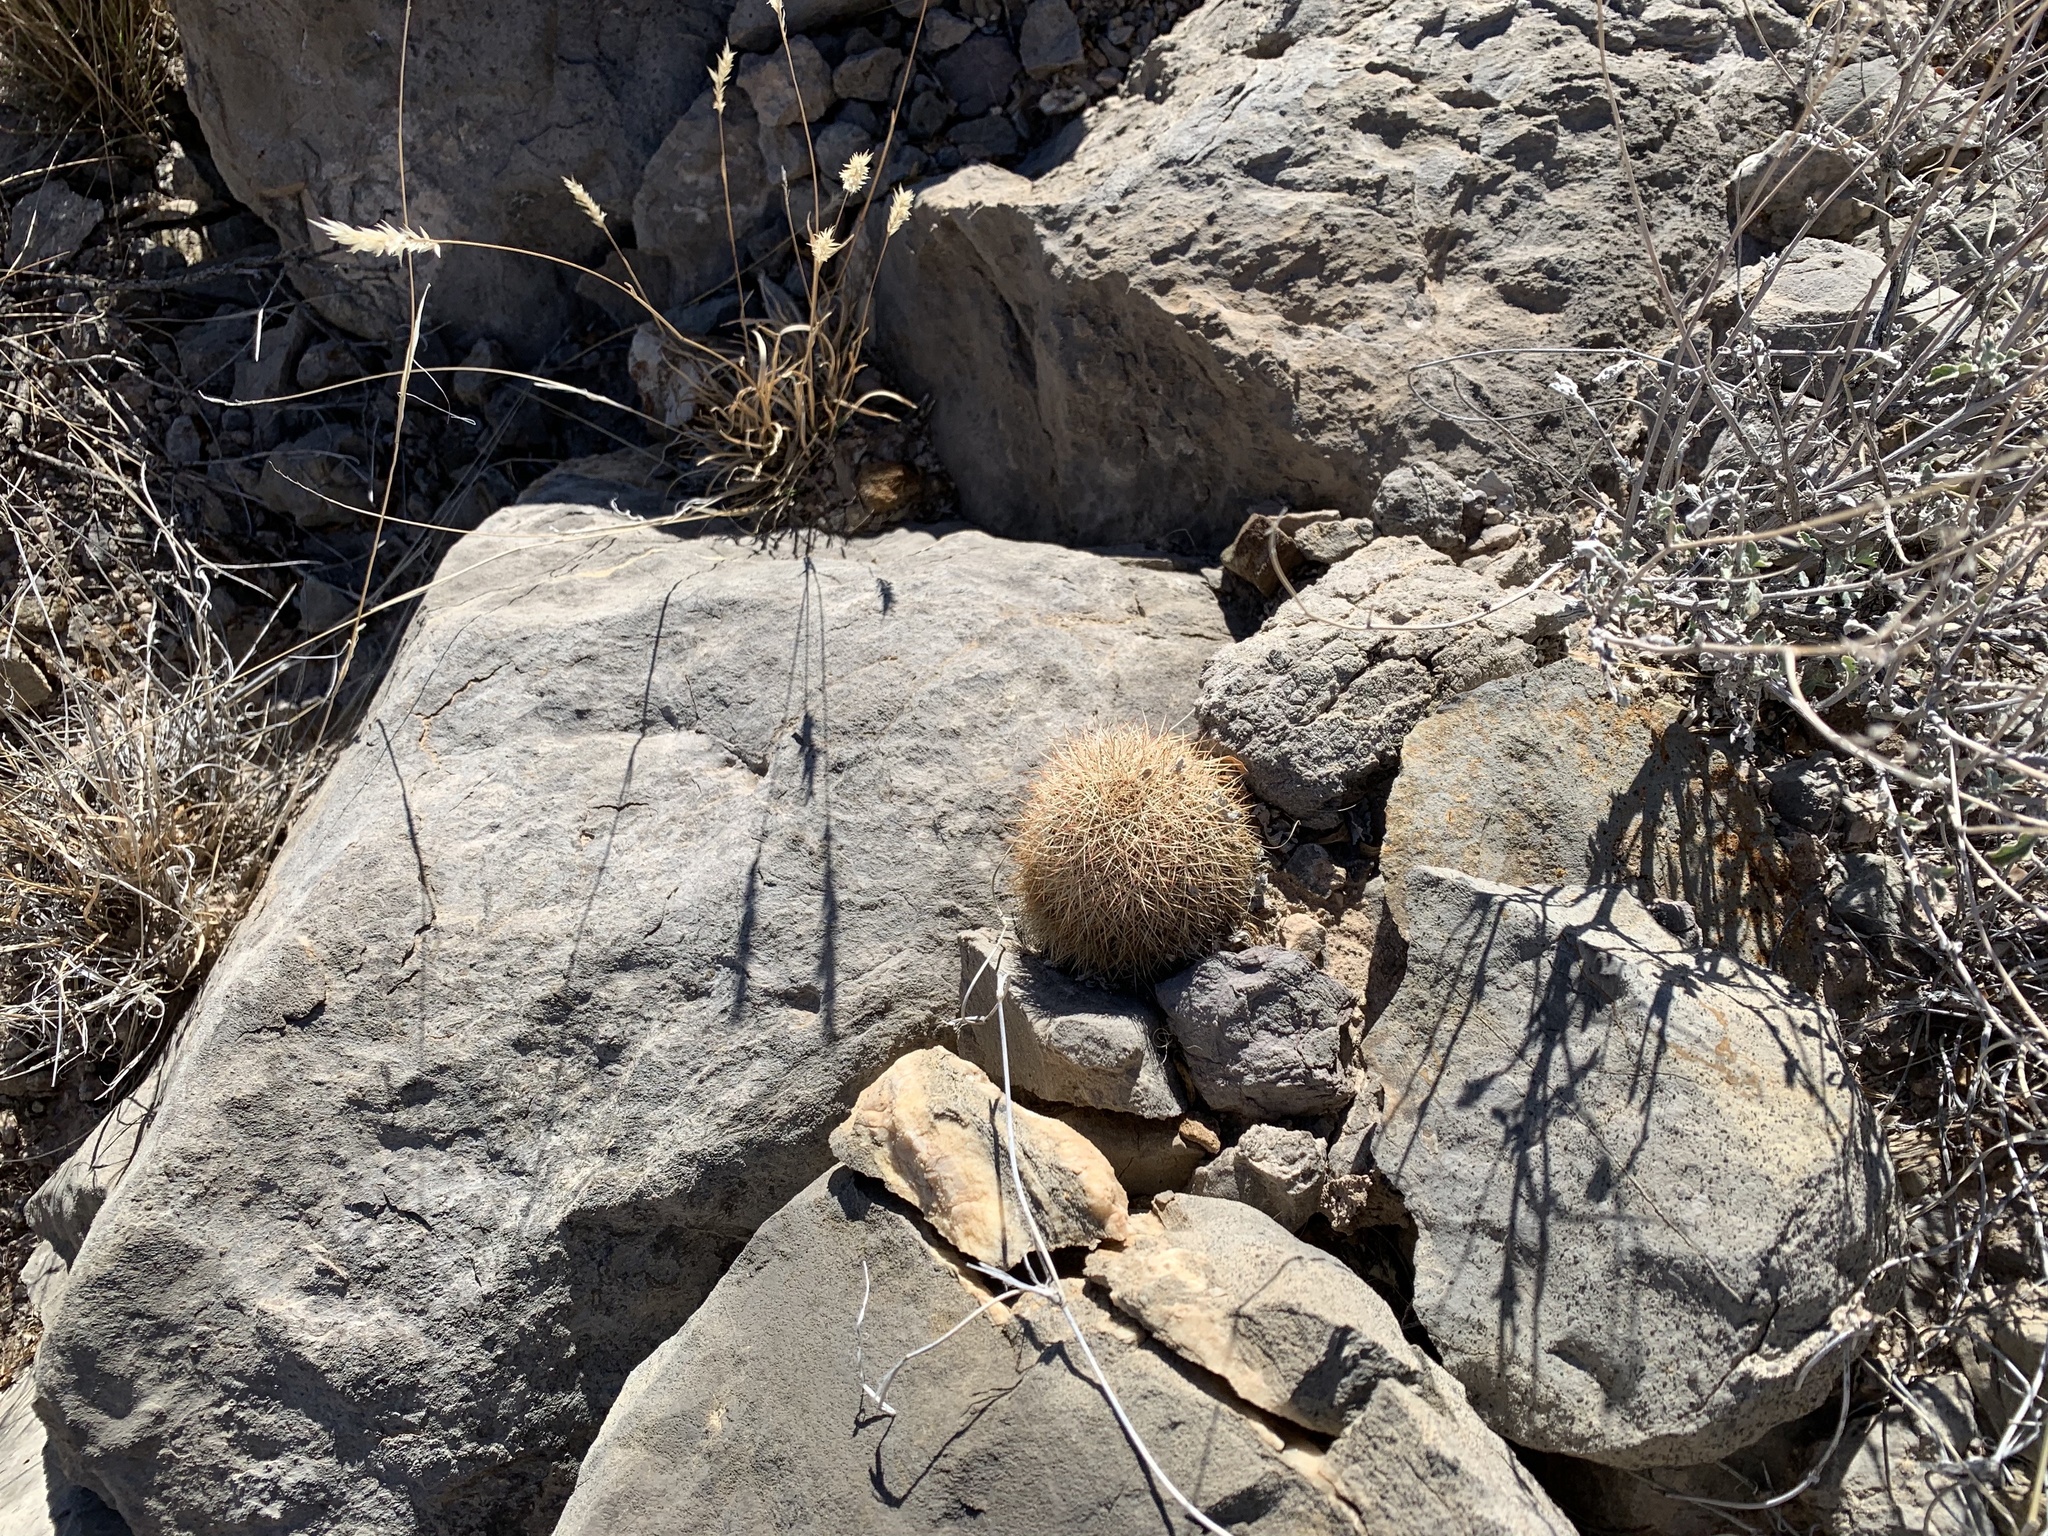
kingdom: Plantae
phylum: Tracheophyta
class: Magnoliopsida
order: Caryophyllales
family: Cactaceae
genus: Echinocereus
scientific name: Echinocereus dasyacanthus
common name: Spiny hedgehog cactus
